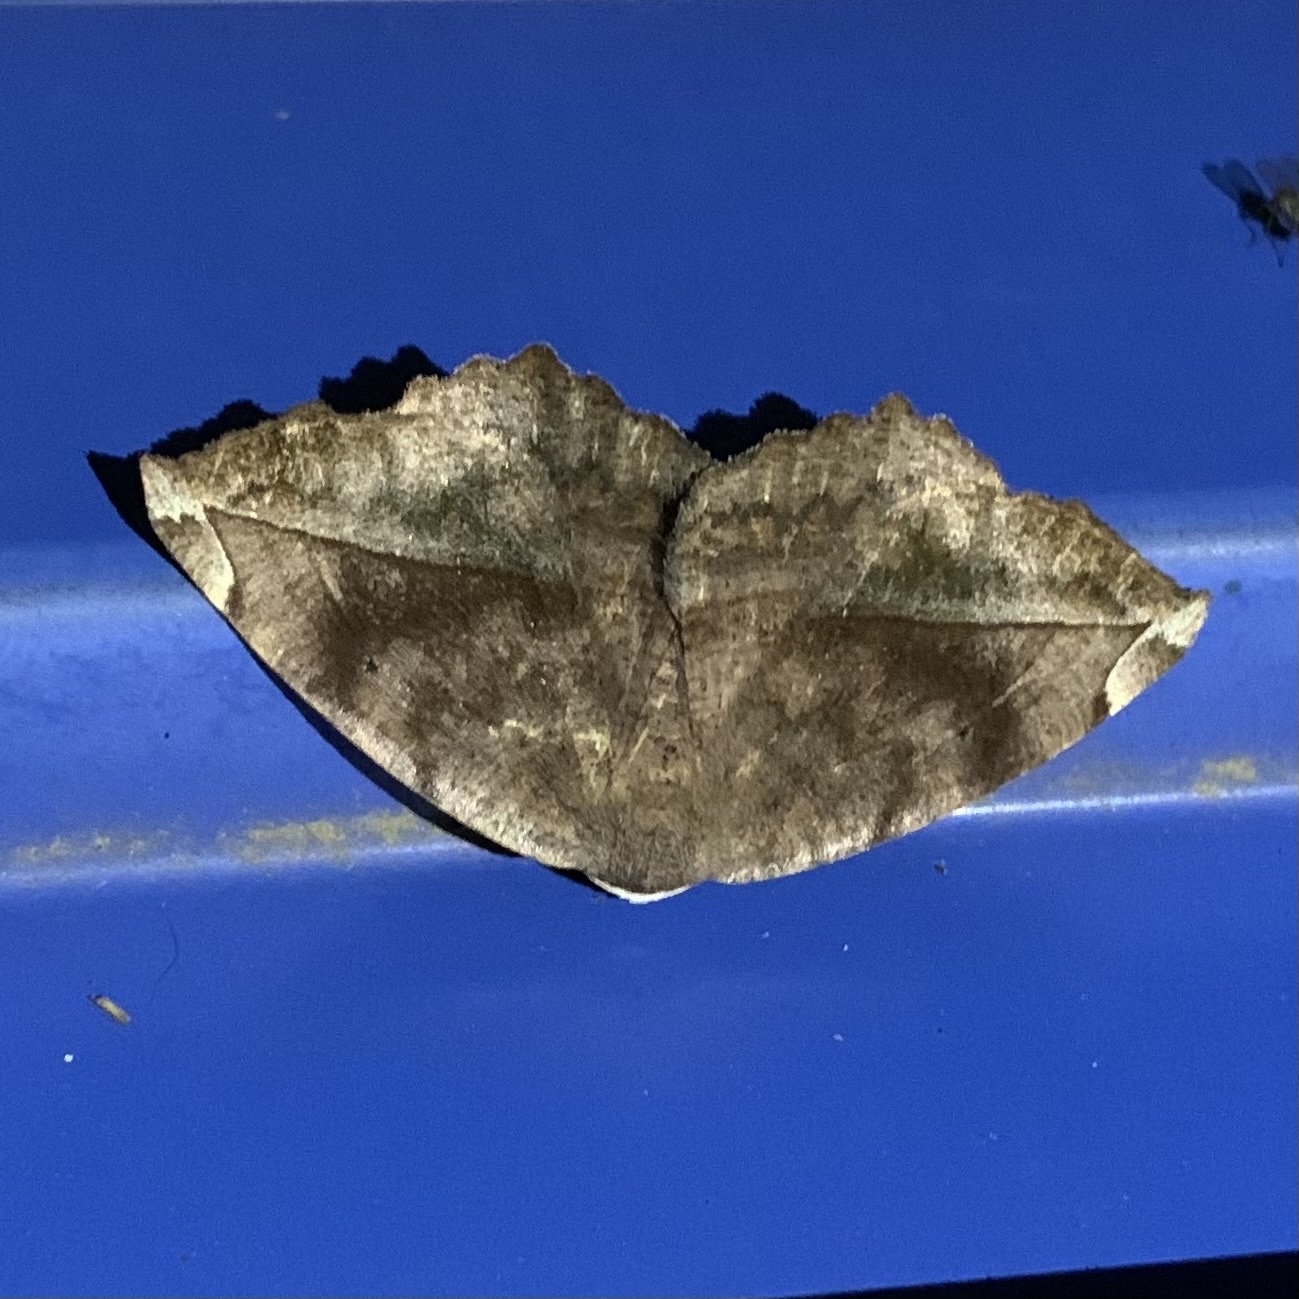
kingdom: Animalia
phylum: Arthropoda
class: Insecta
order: Lepidoptera
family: Geometridae
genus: Eutrapela
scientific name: Eutrapela clemataria
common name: Curved-toothed geometer
